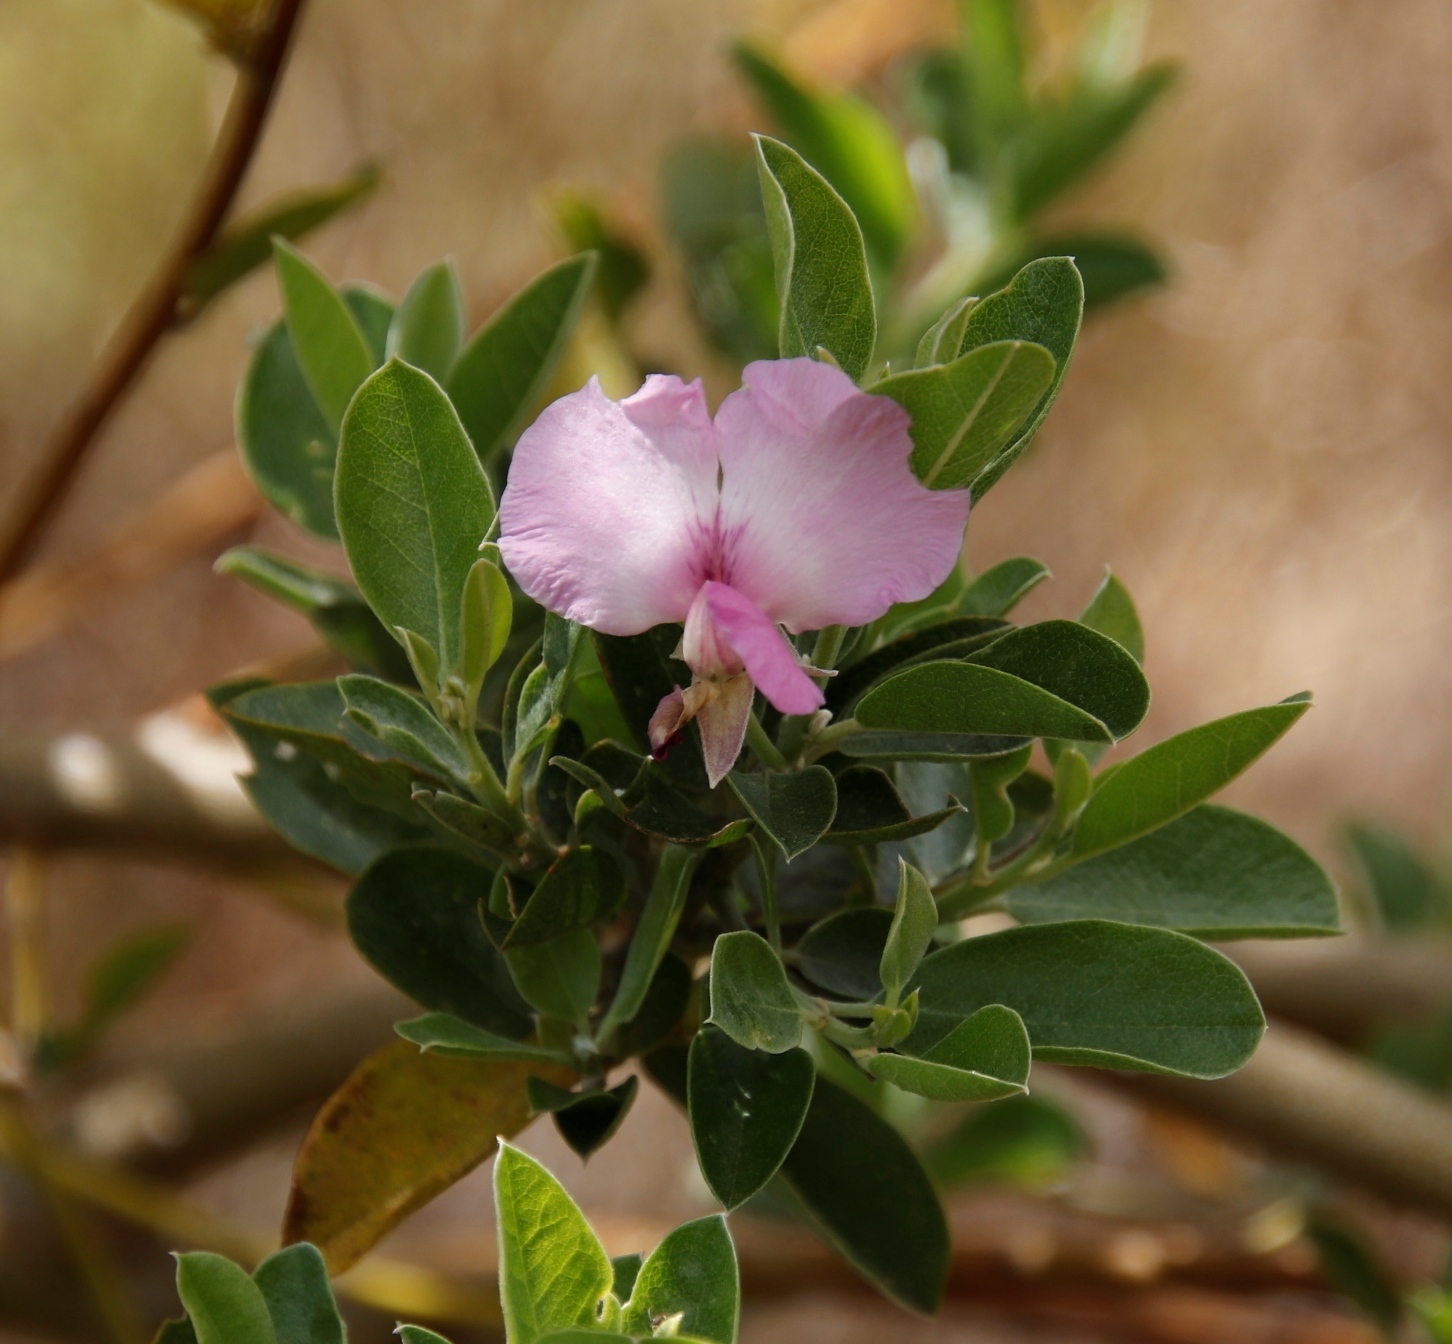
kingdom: Plantae
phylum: Tracheophyta
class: Magnoliopsida
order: Fabales
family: Fabaceae
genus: Podalyria
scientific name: Podalyria calyptrata
